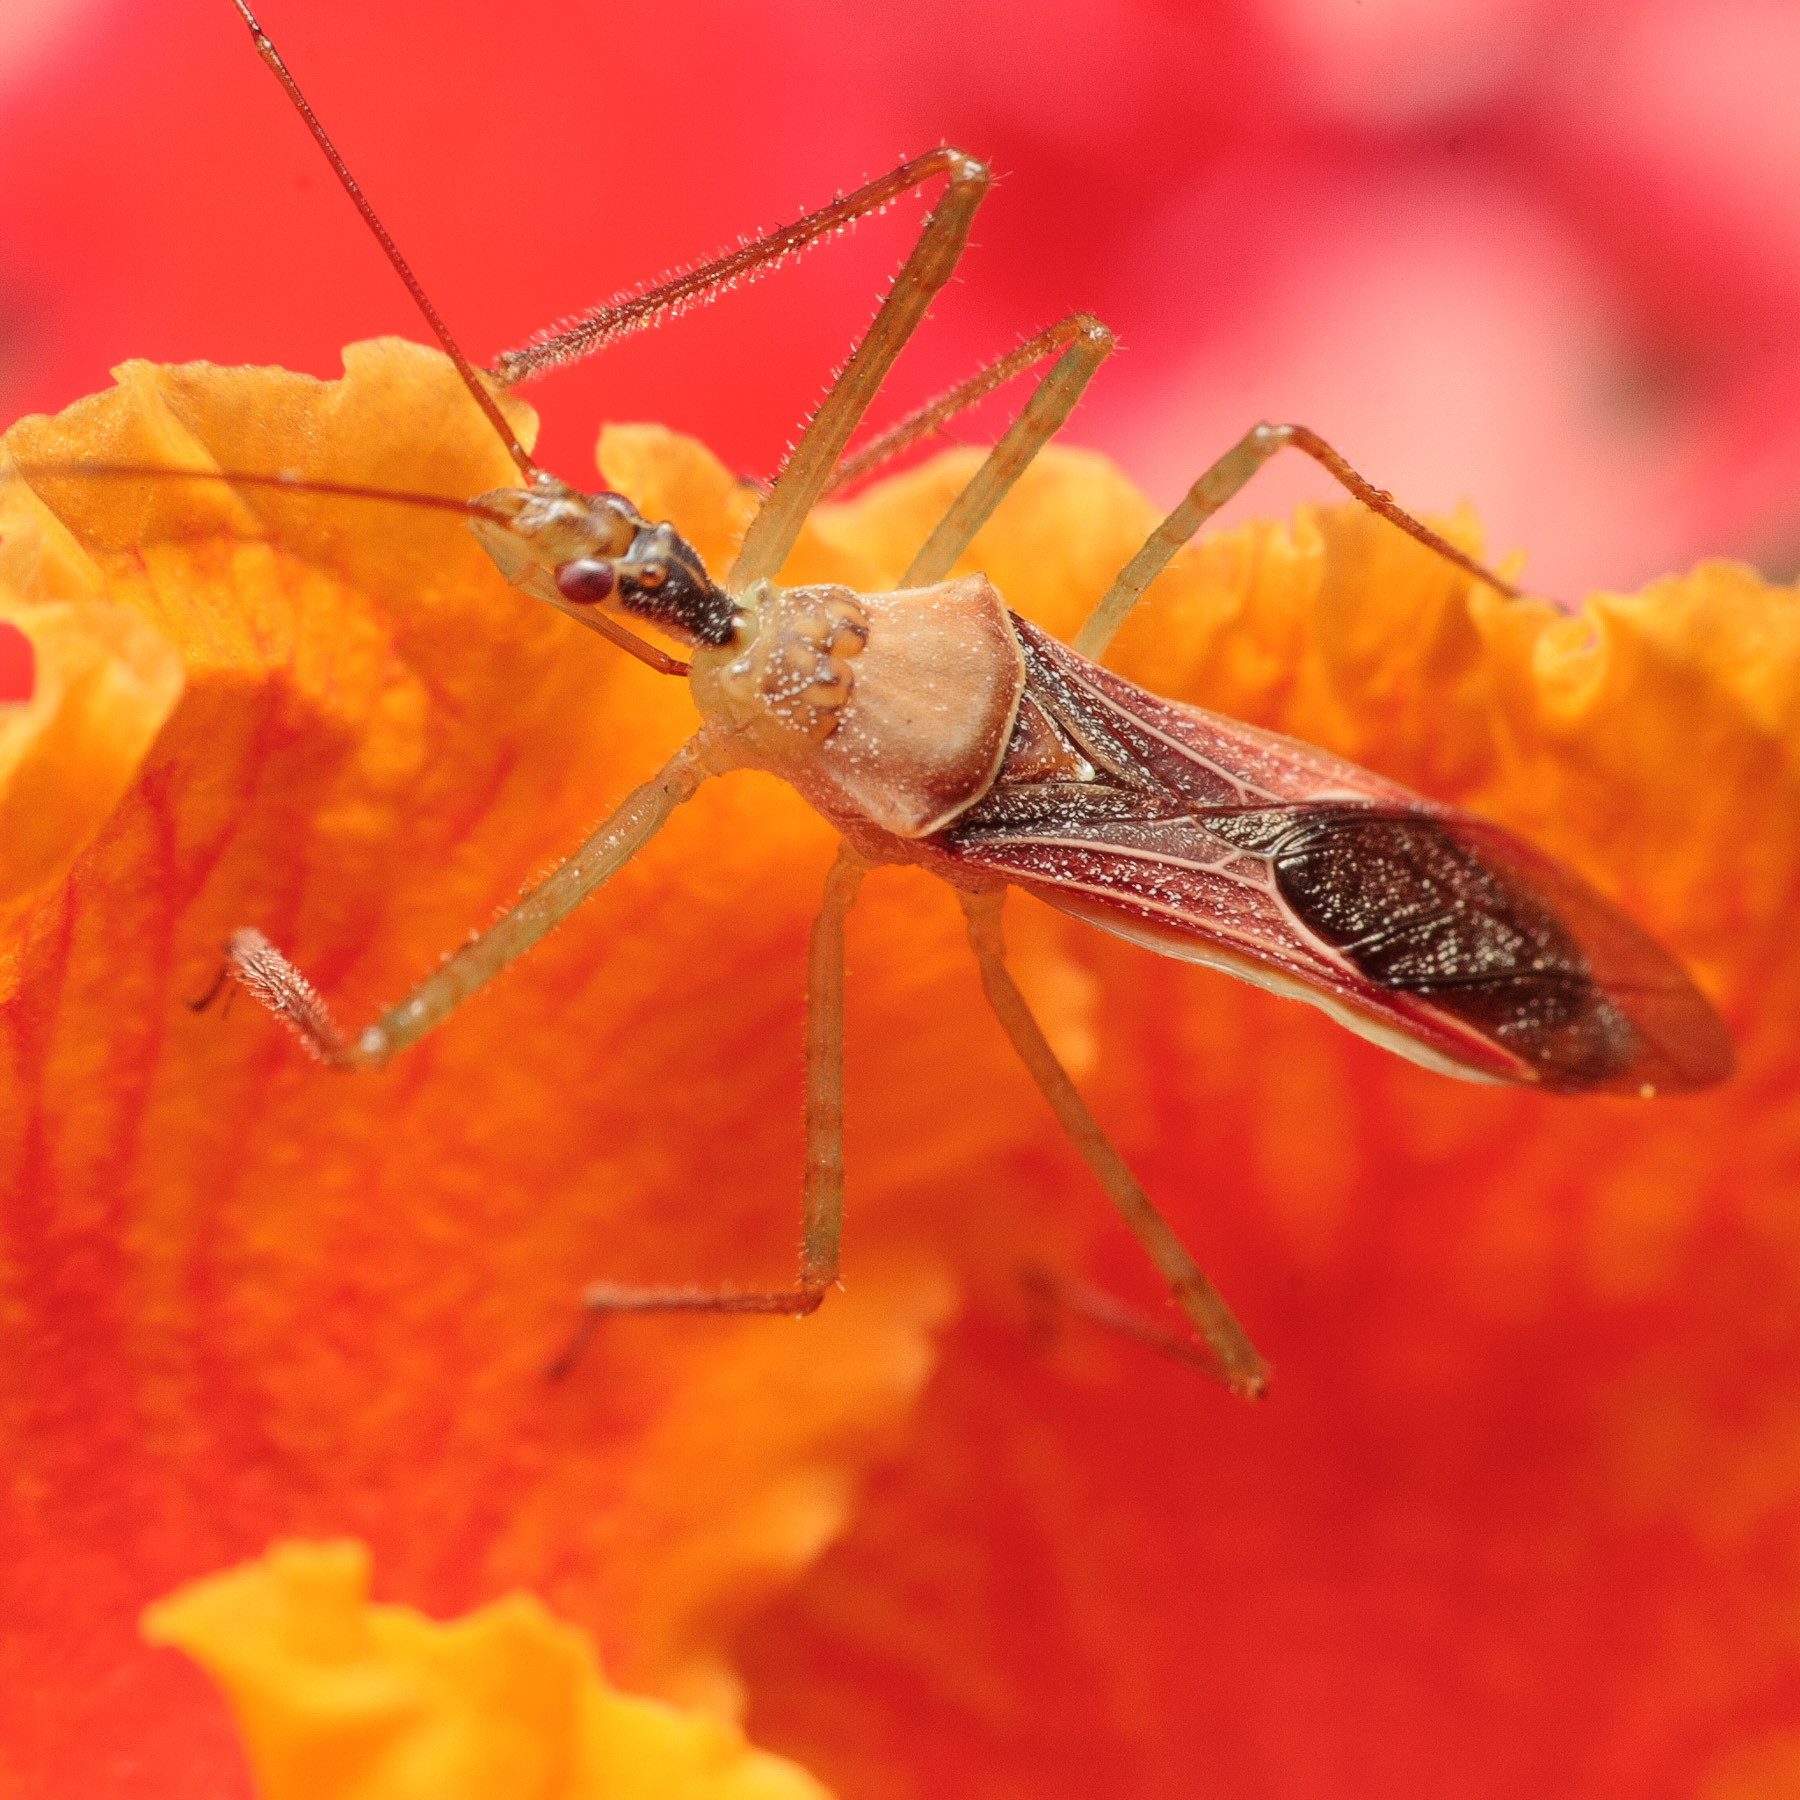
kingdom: Animalia
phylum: Arthropoda
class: Insecta
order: Hemiptera
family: Reduviidae
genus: Zelus
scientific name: Zelus renardii
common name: Assassin bug
